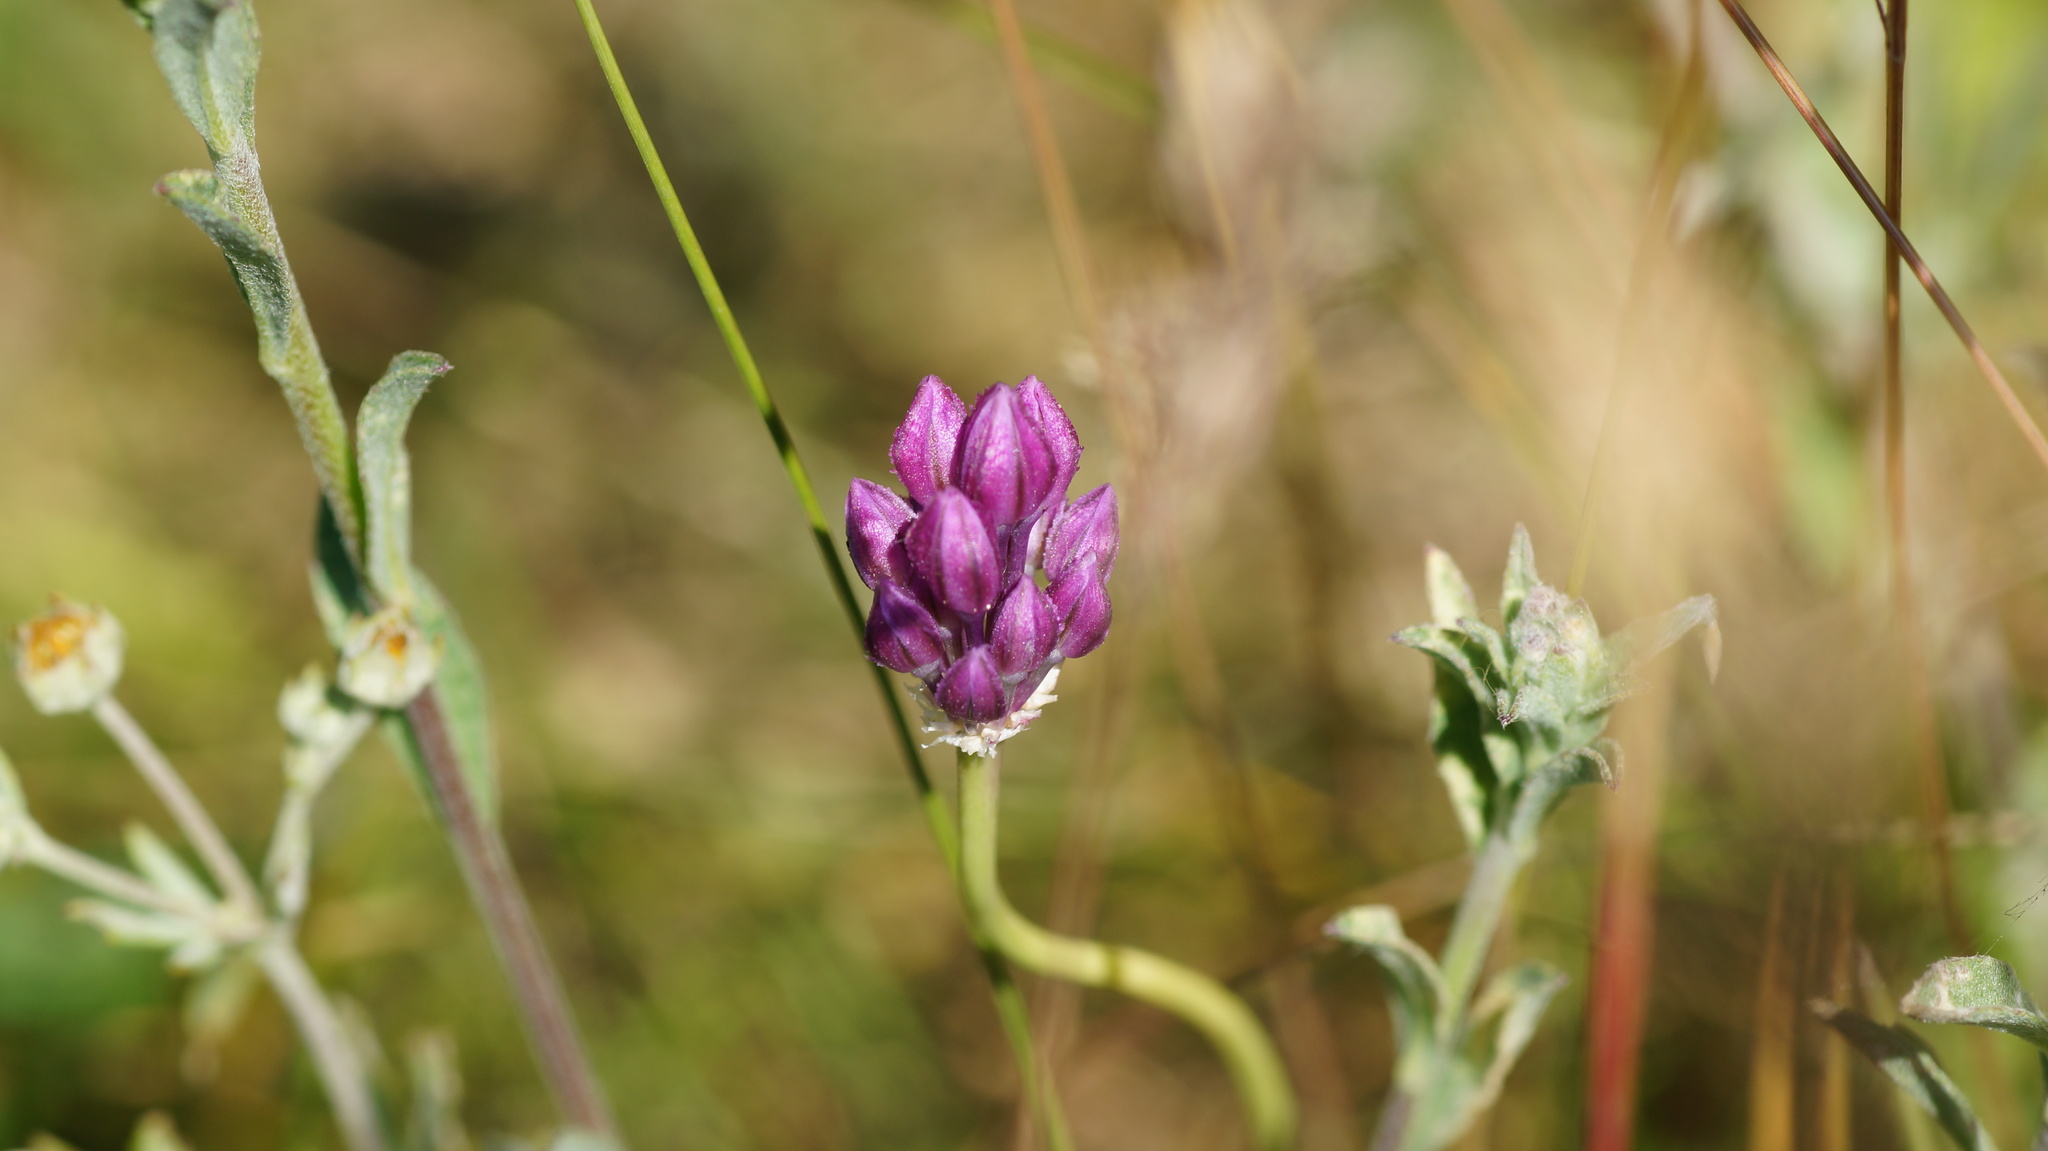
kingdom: Plantae
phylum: Tracheophyta
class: Liliopsida
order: Asparagales
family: Amaryllidaceae
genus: Allium
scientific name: Allium rotundum
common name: Sand leek
